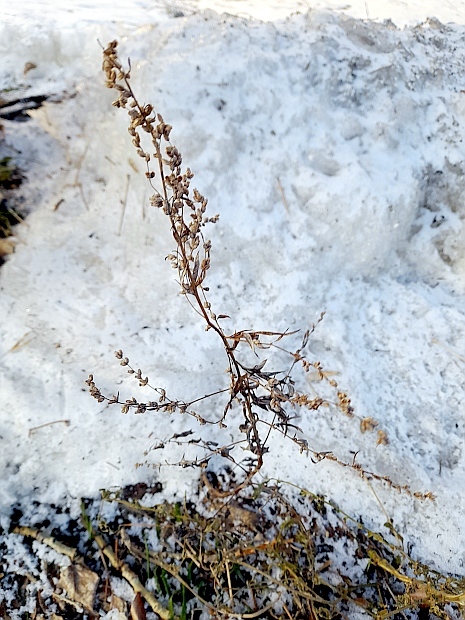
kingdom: Plantae
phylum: Tracheophyta
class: Magnoliopsida
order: Asterales
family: Asteraceae
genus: Artemisia
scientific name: Artemisia vulgaris
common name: Mugwort
